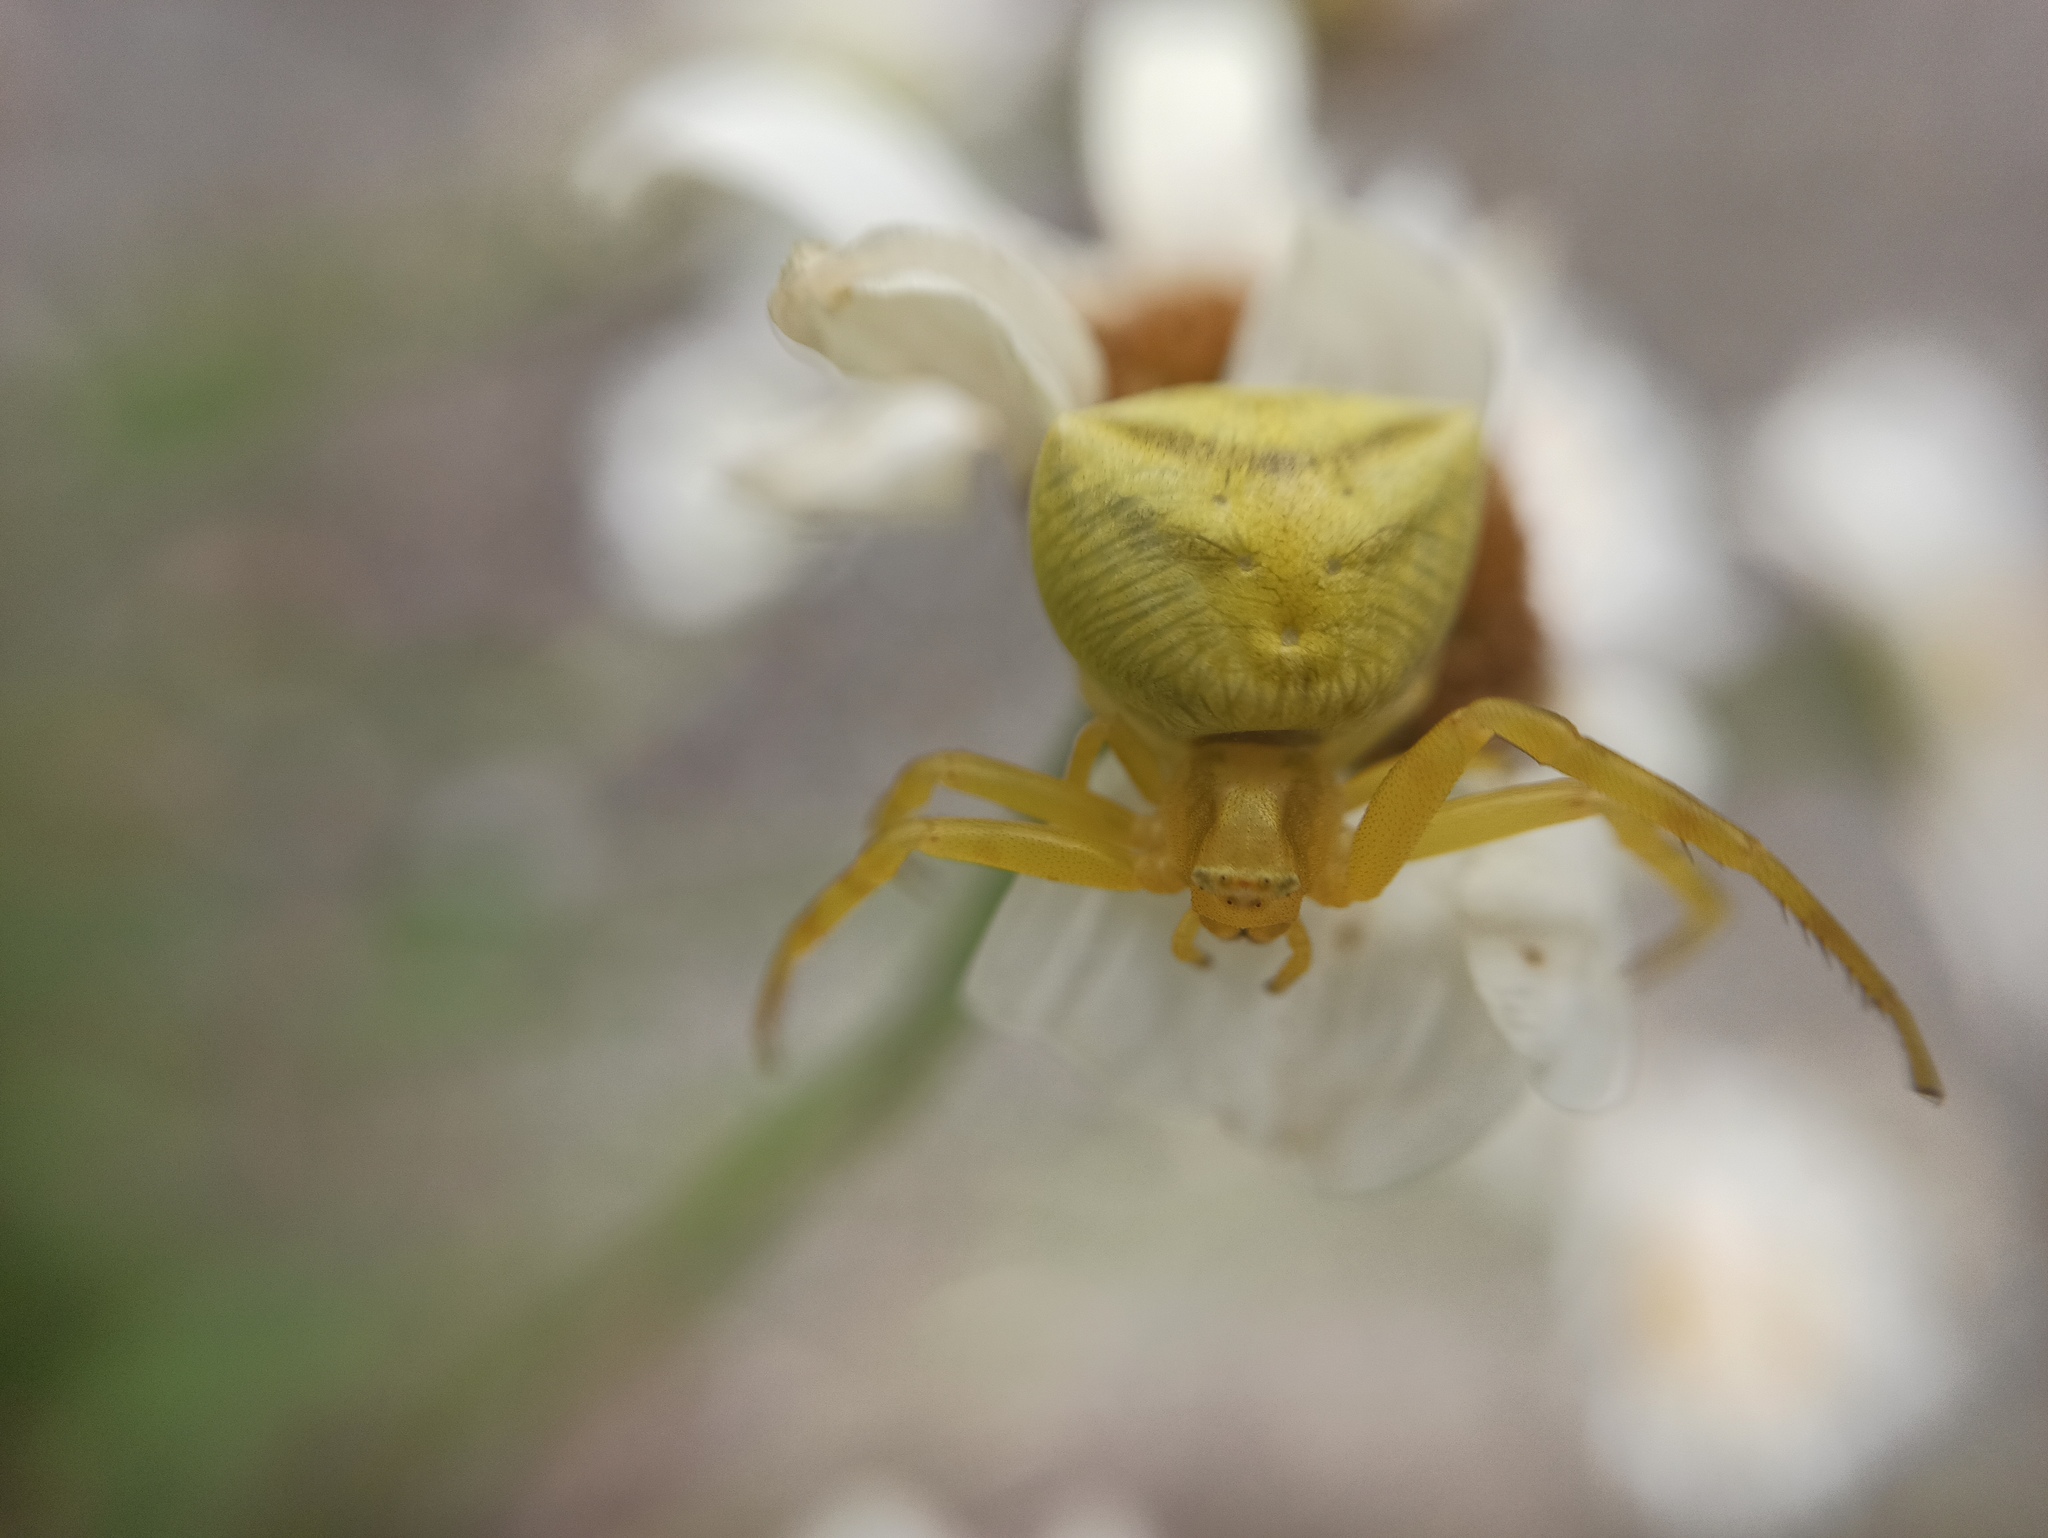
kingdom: Animalia
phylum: Arthropoda
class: Arachnida
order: Araneae
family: Thomisidae
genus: Thomisus
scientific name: Thomisus onustus
